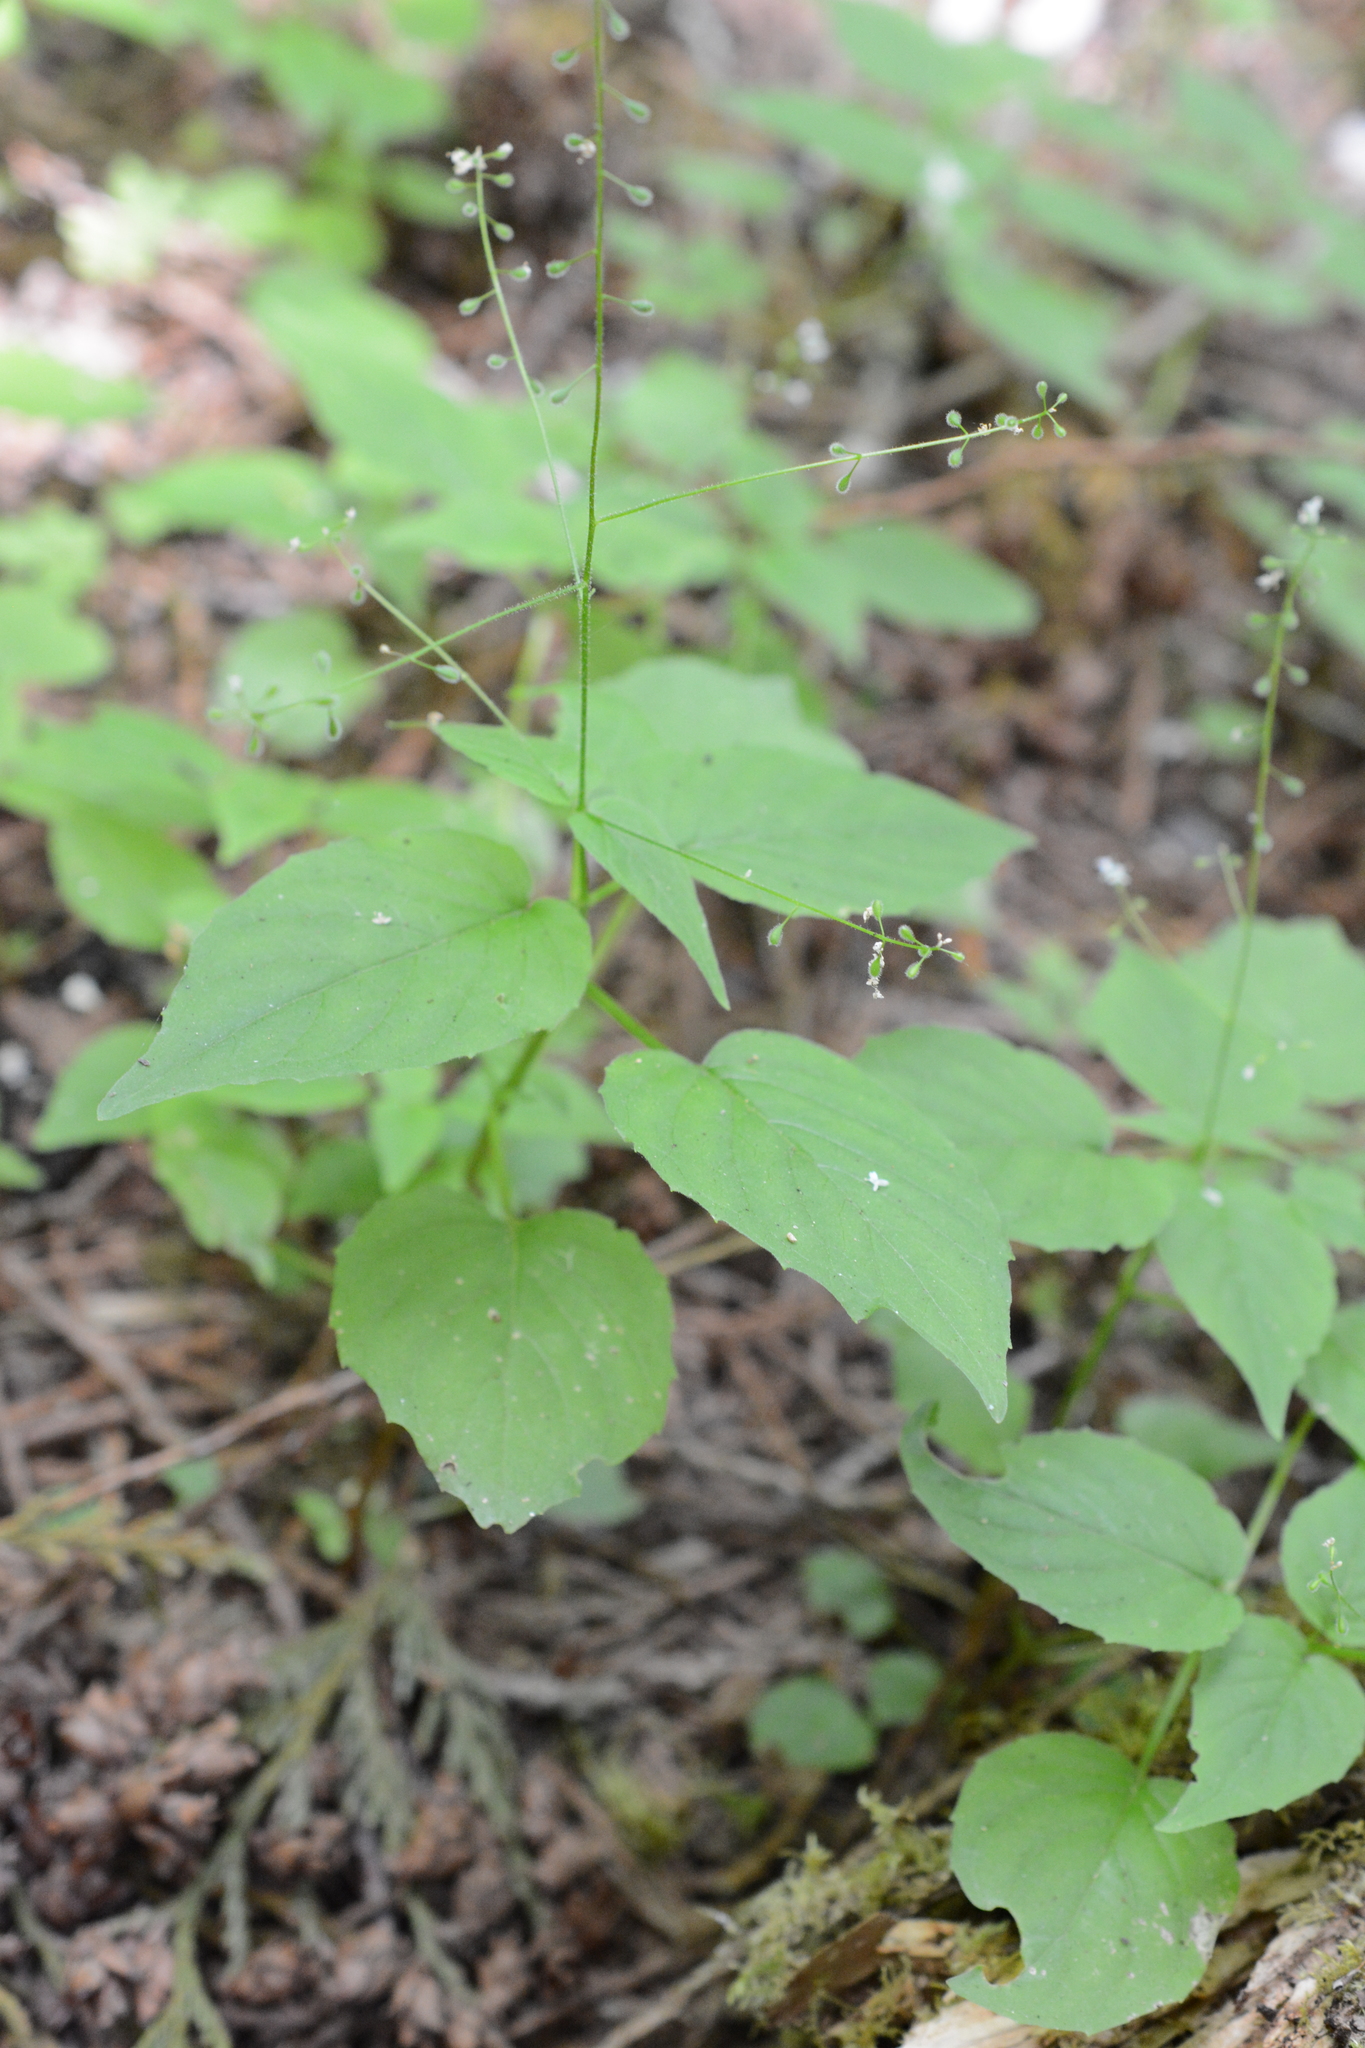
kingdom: Plantae
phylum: Tracheophyta
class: Magnoliopsida
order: Myrtales
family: Onagraceae
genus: Circaea
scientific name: Circaea alpina
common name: Alpine enchanter's-nightshade
